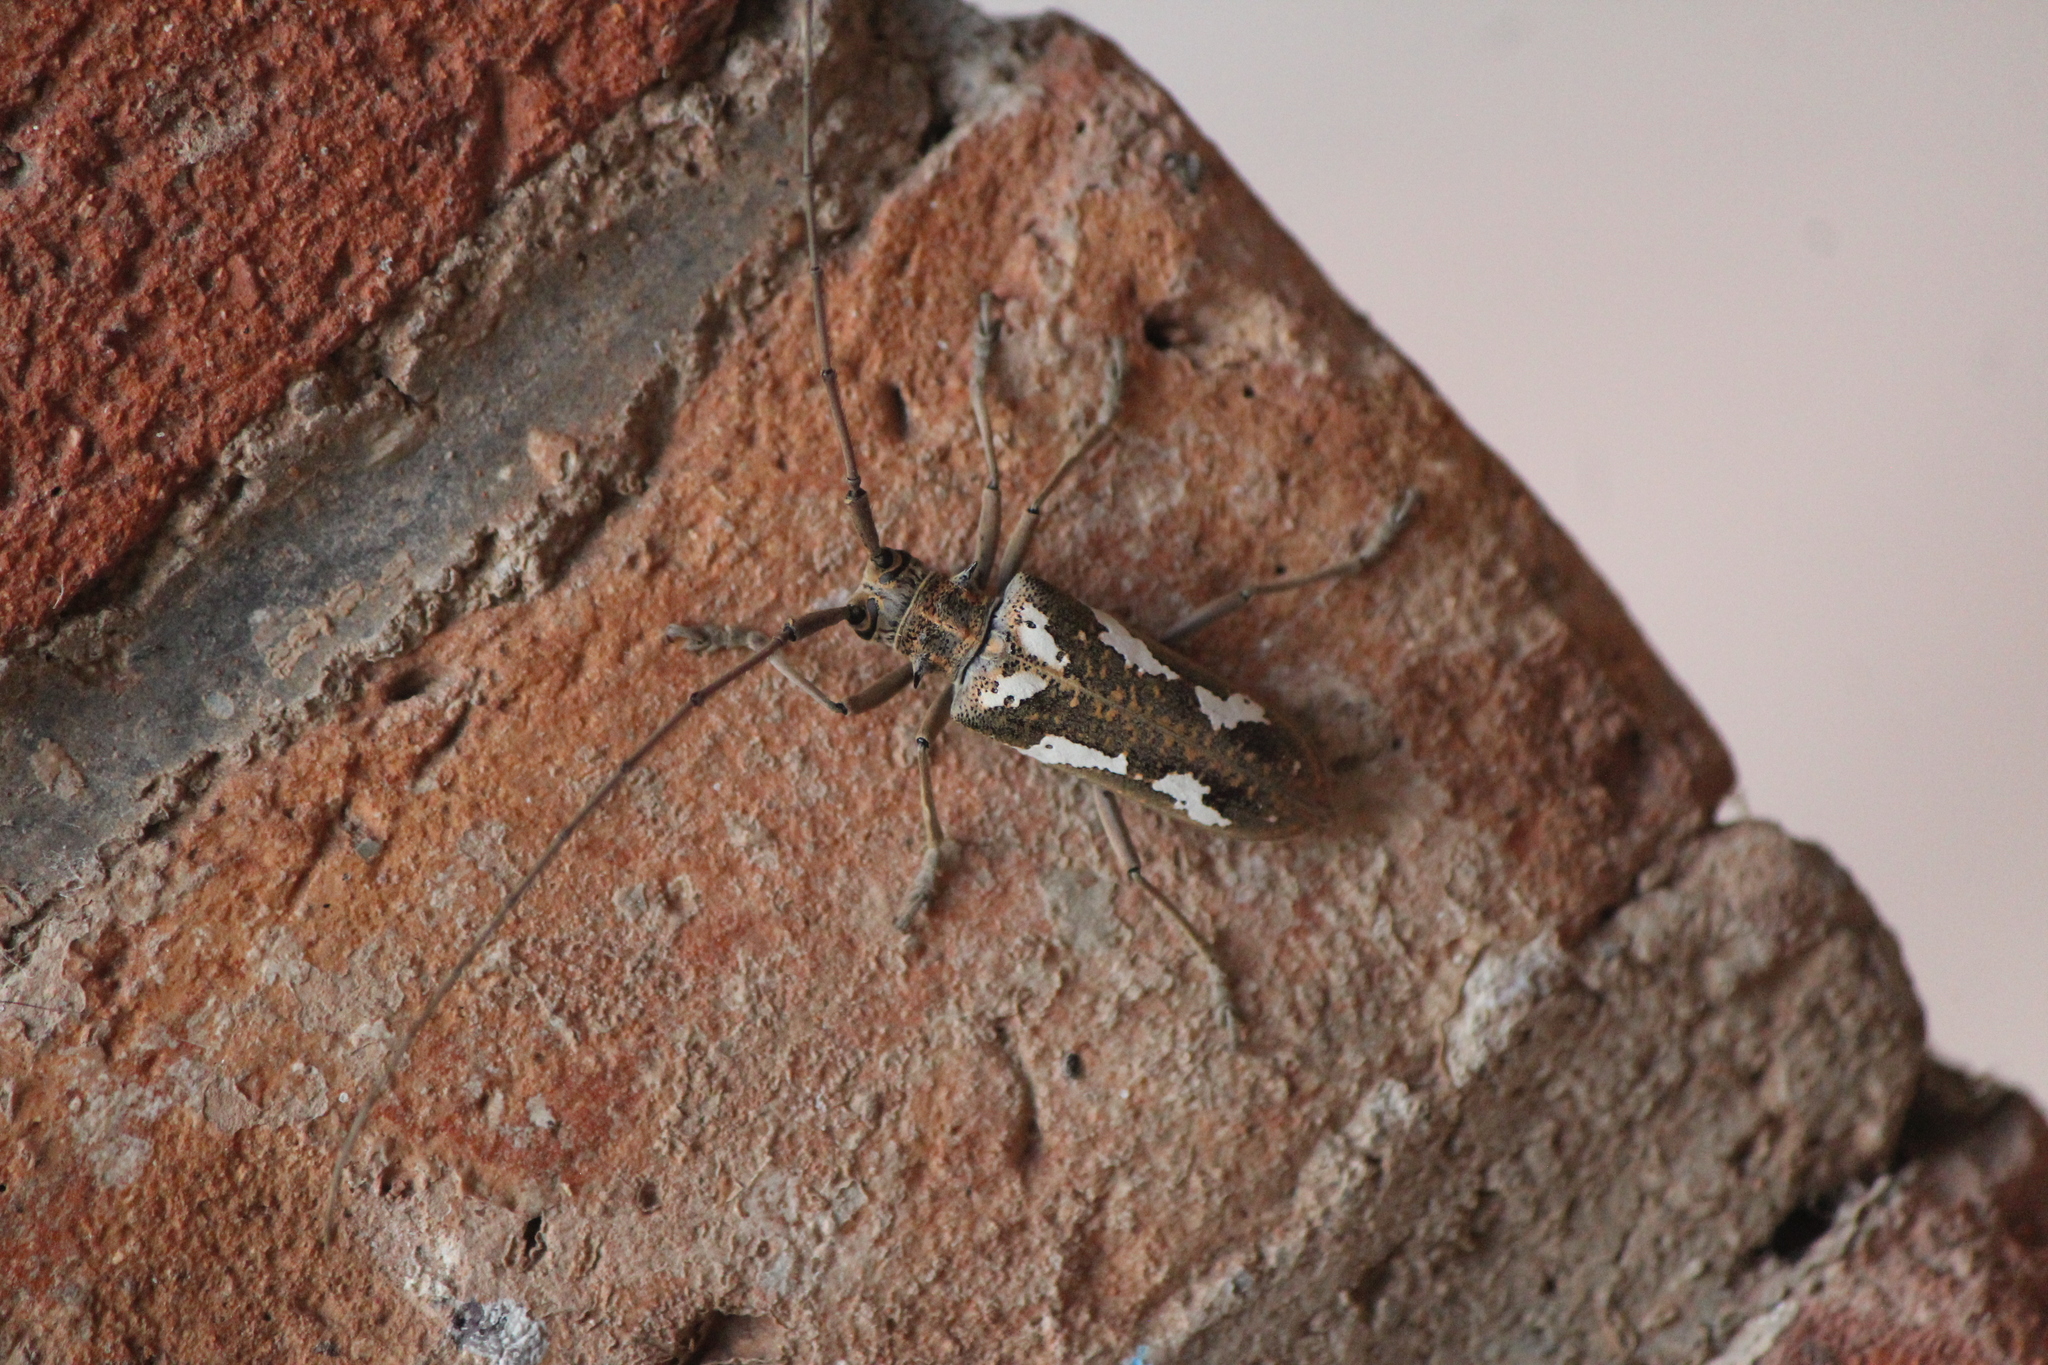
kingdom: Animalia
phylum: Arthropoda
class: Insecta
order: Coleoptera
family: Cerambycidae
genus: Plagiohammus
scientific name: Plagiohammus laceratus
